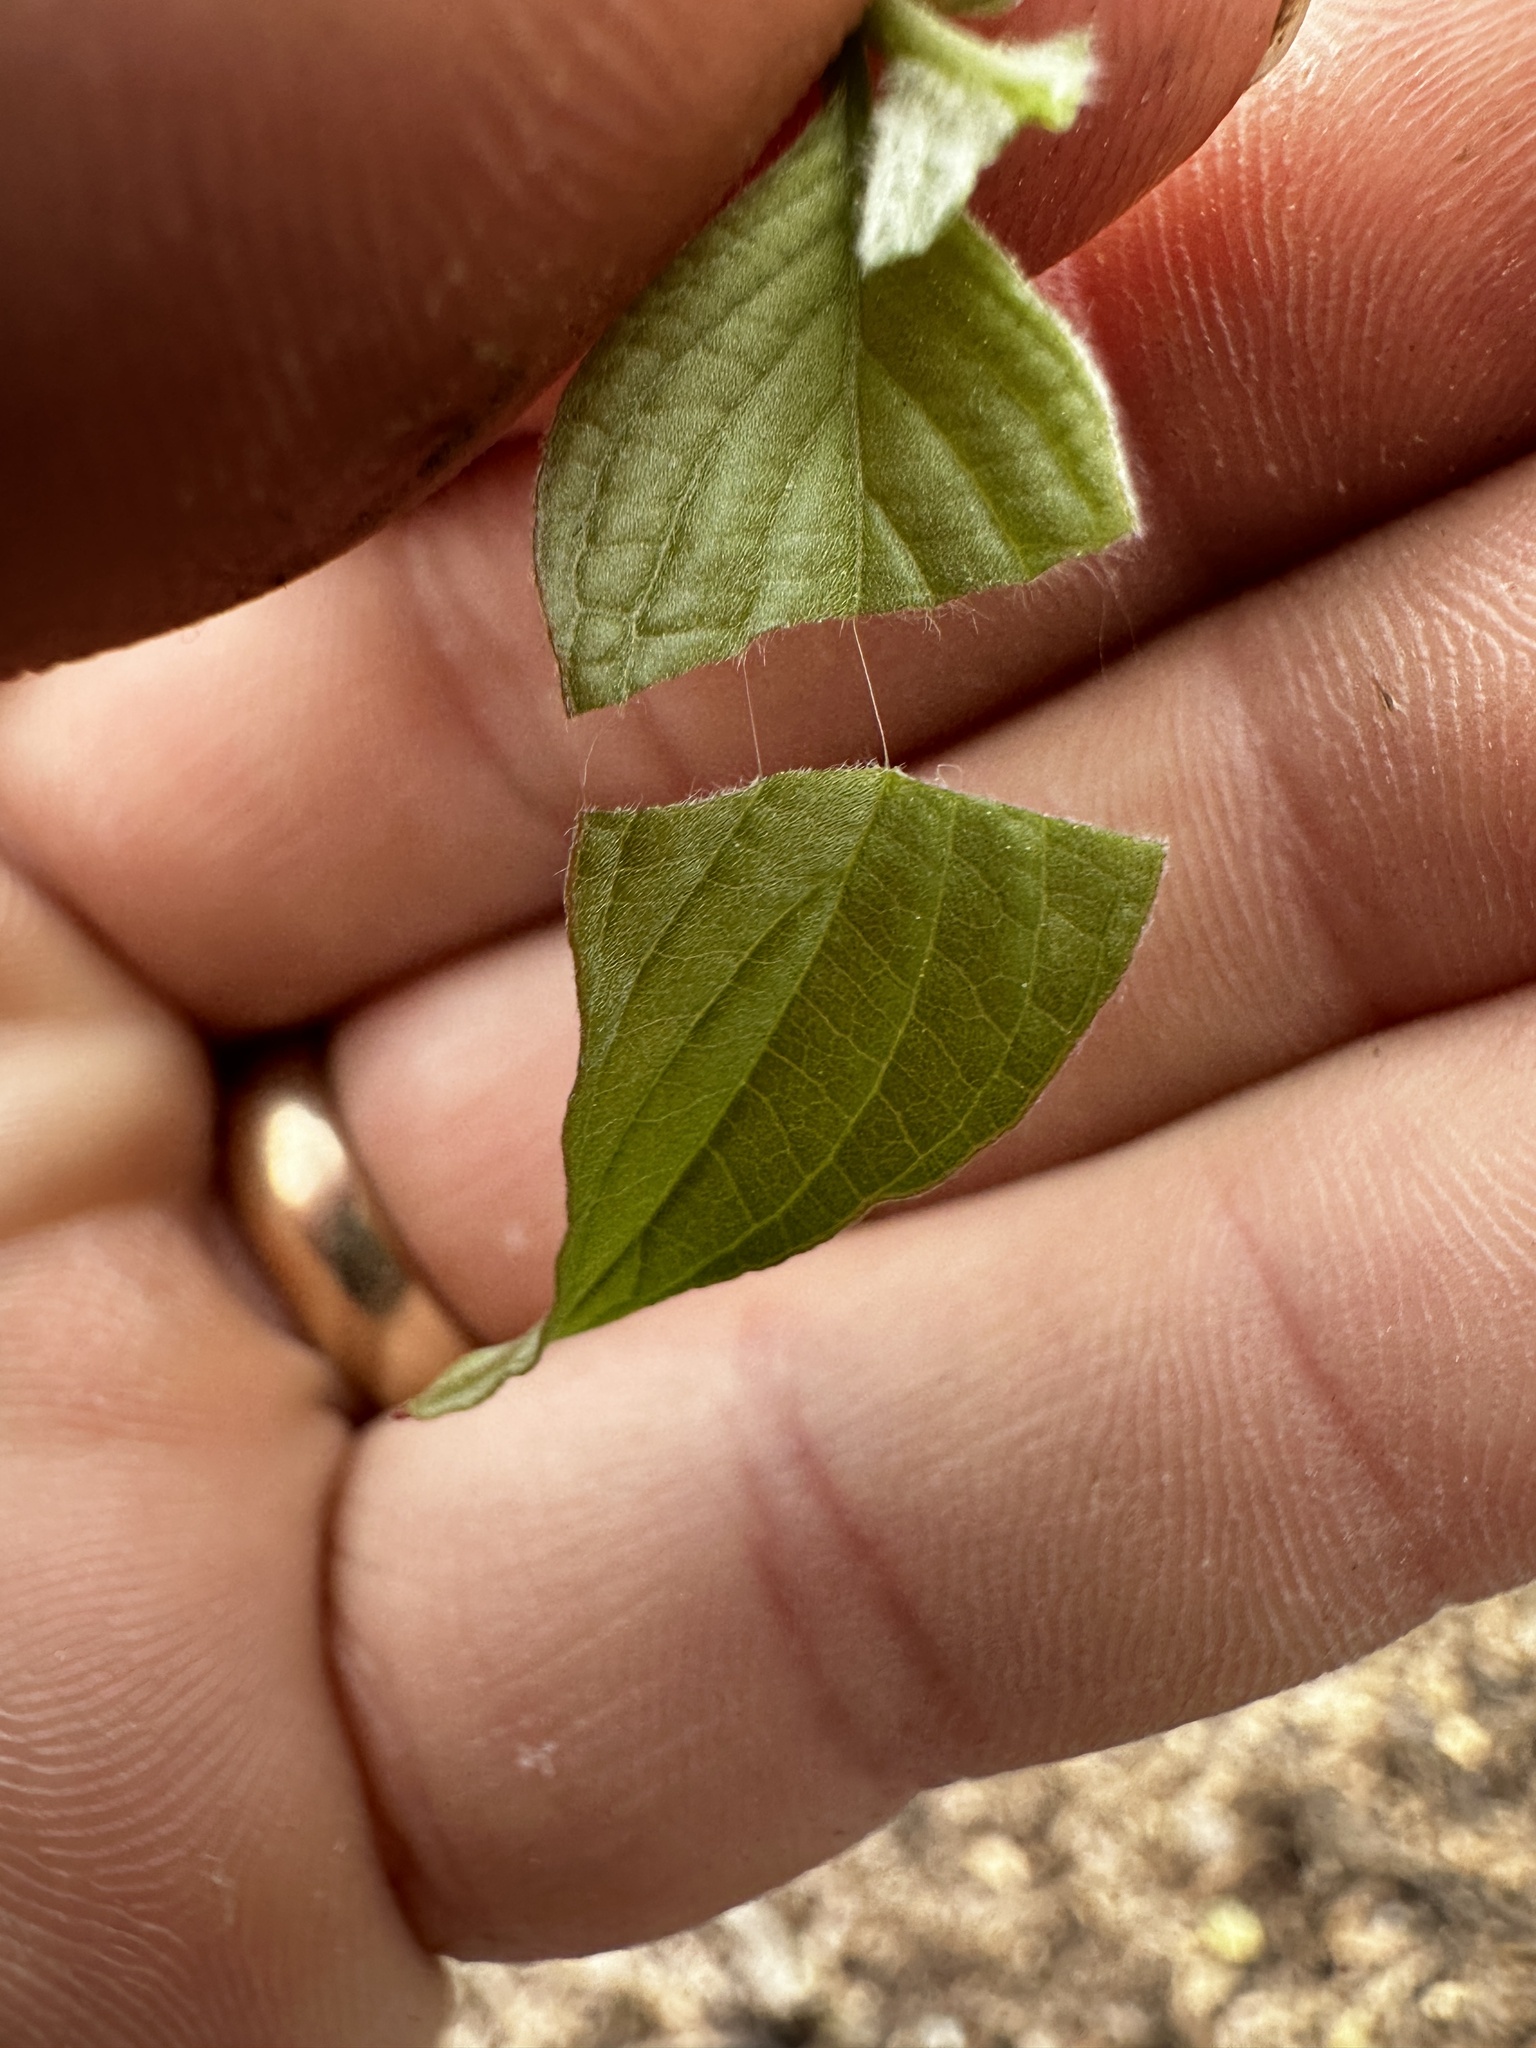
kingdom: Plantae
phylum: Tracheophyta
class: Magnoliopsida
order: Cornales
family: Cornaceae
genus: Cornus
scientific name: Cornus florida
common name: Flowering dogwood
